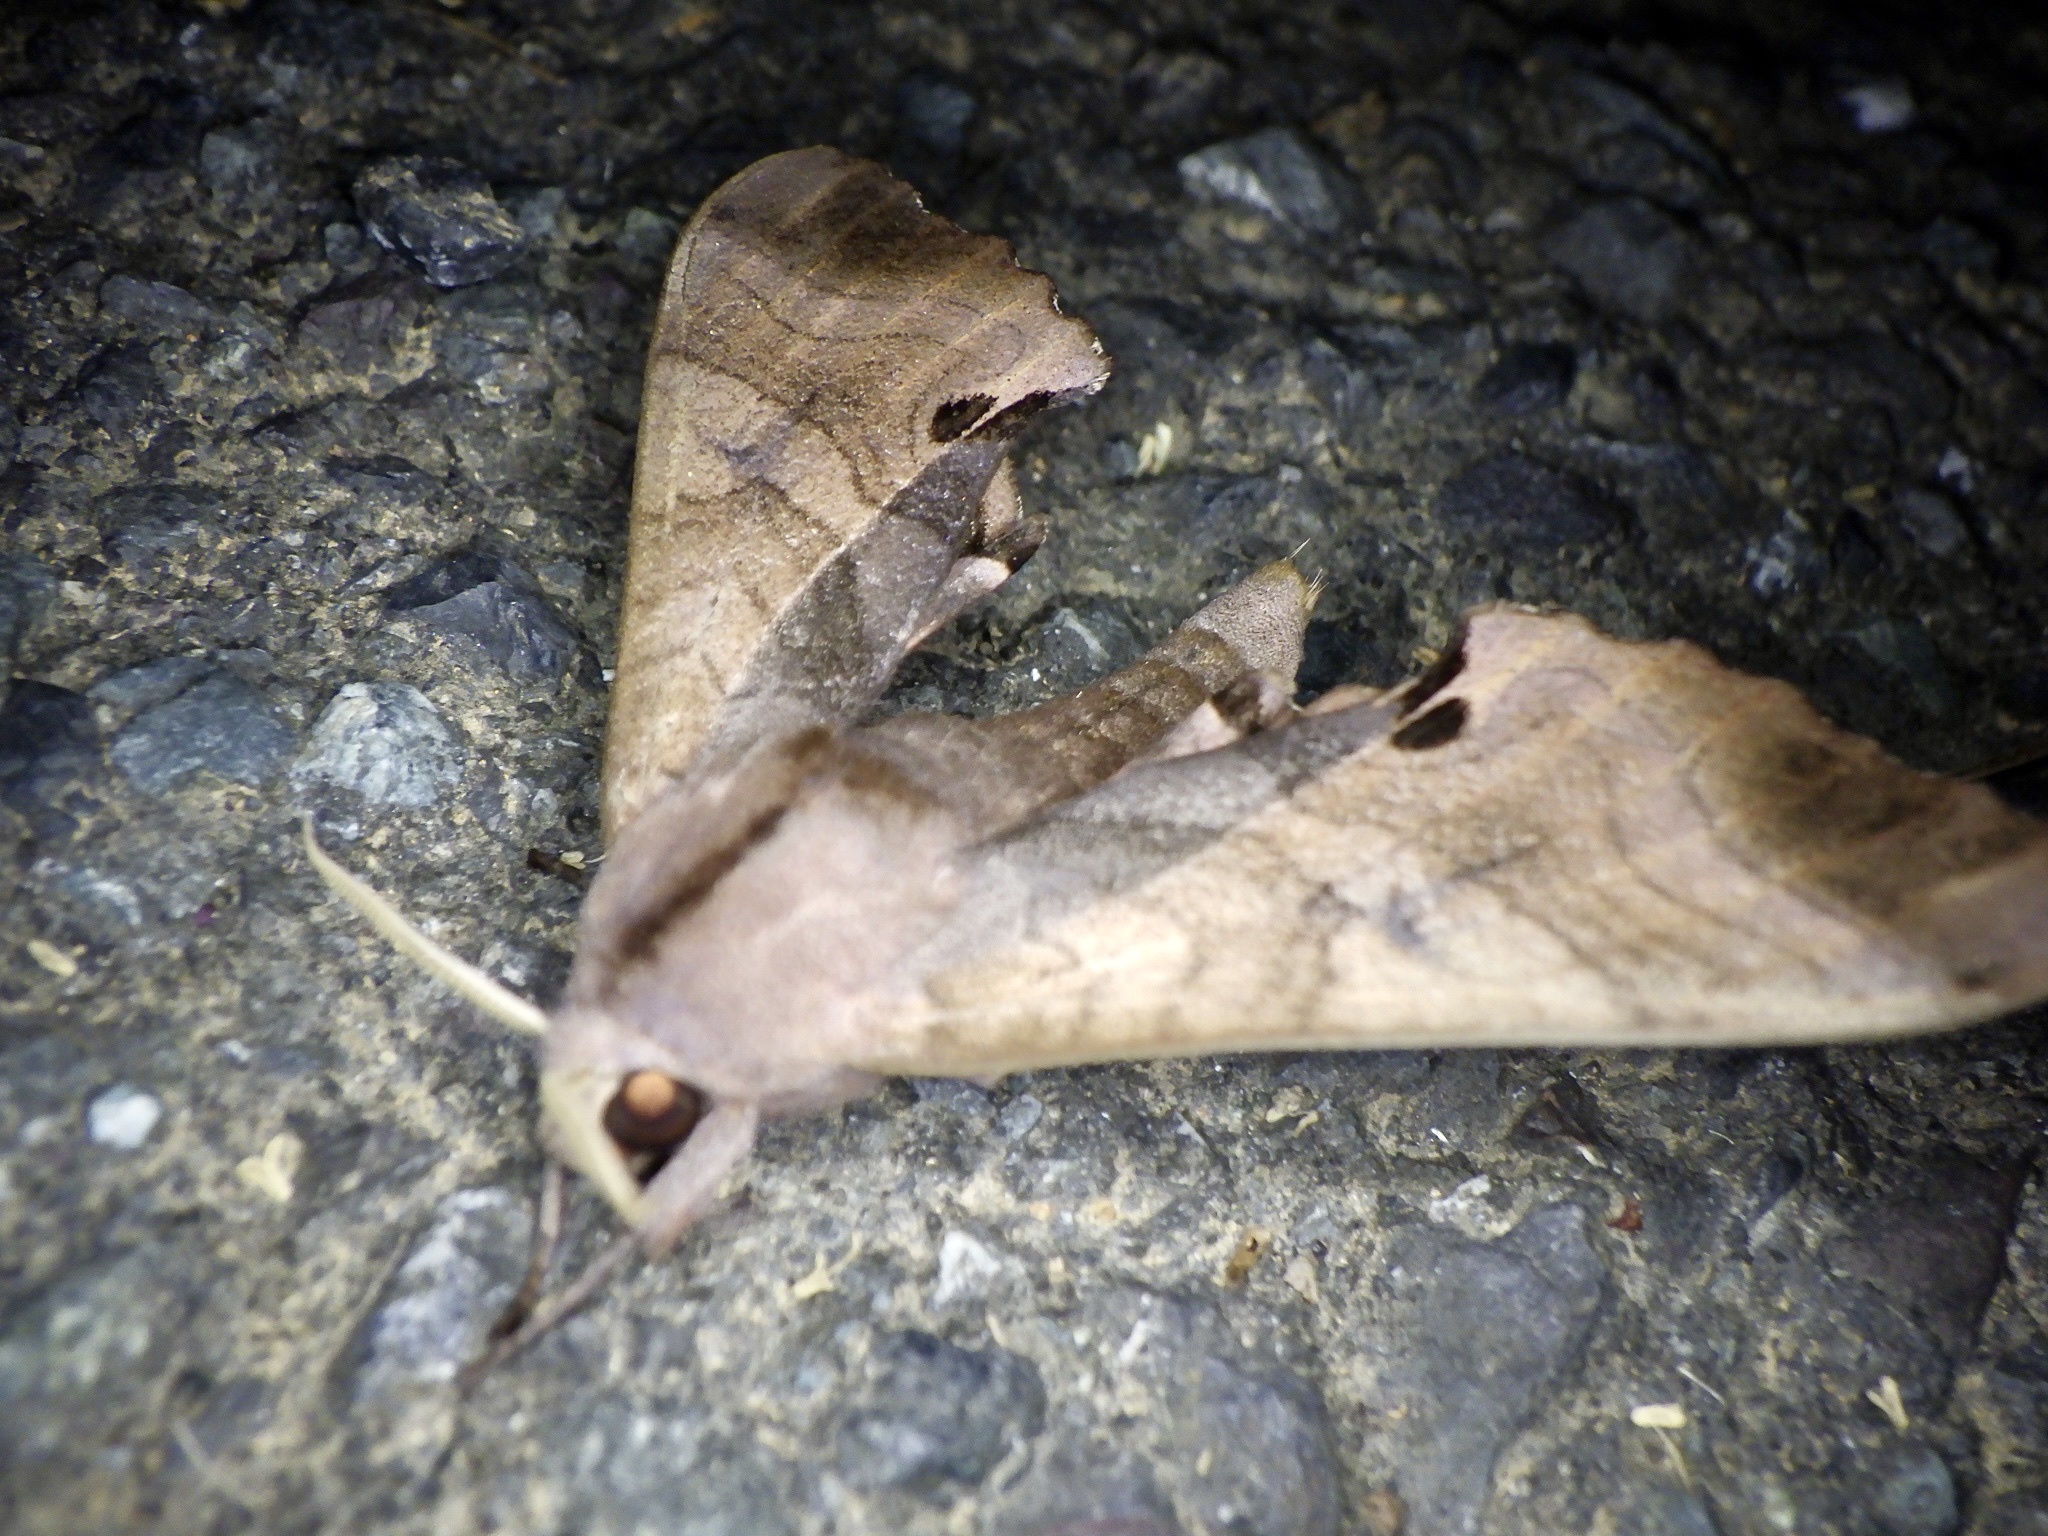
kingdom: Animalia
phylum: Arthropoda
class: Insecta
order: Lepidoptera
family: Sphingidae
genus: Marumba
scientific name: Marumba echephron
